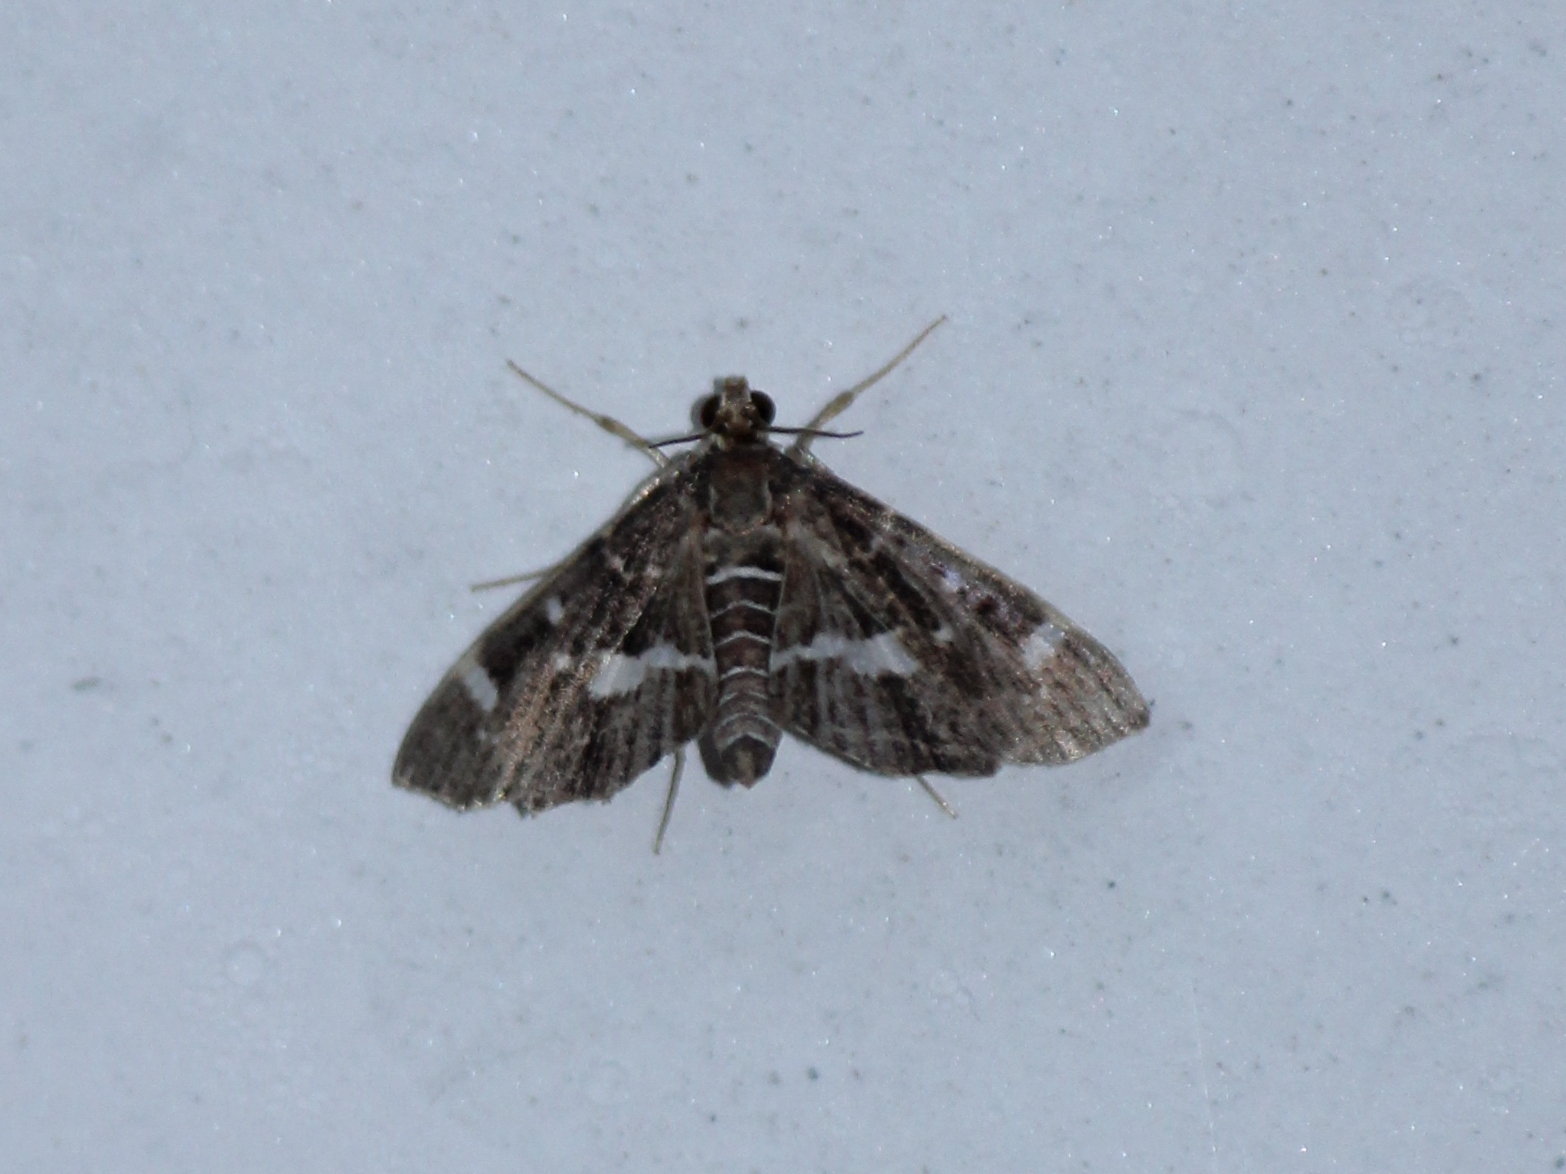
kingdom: Animalia
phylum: Arthropoda
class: Insecta
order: Lepidoptera
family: Crambidae
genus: Hymenia
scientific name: Hymenia perspectalis
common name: Spotted beet webworm
